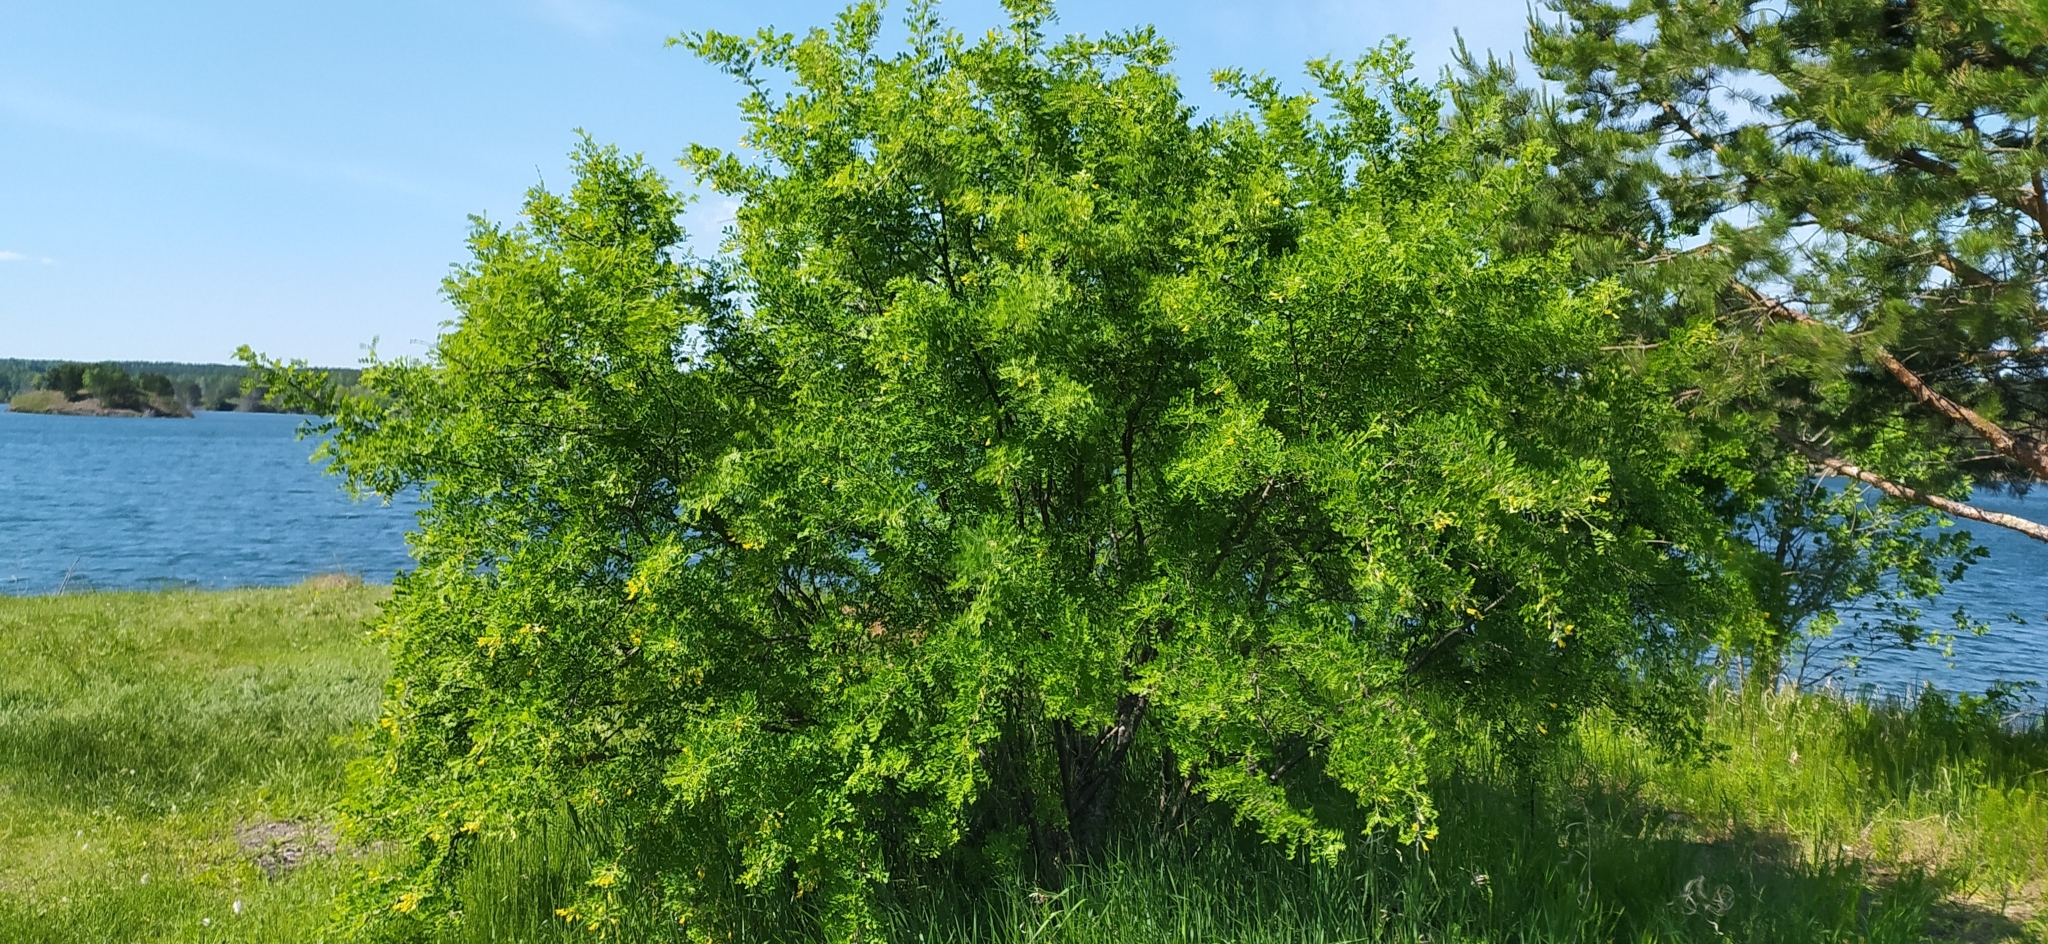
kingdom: Plantae
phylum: Tracheophyta
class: Magnoliopsida
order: Fabales
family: Fabaceae
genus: Caragana
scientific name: Caragana arborescens
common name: Siberian peashrub
